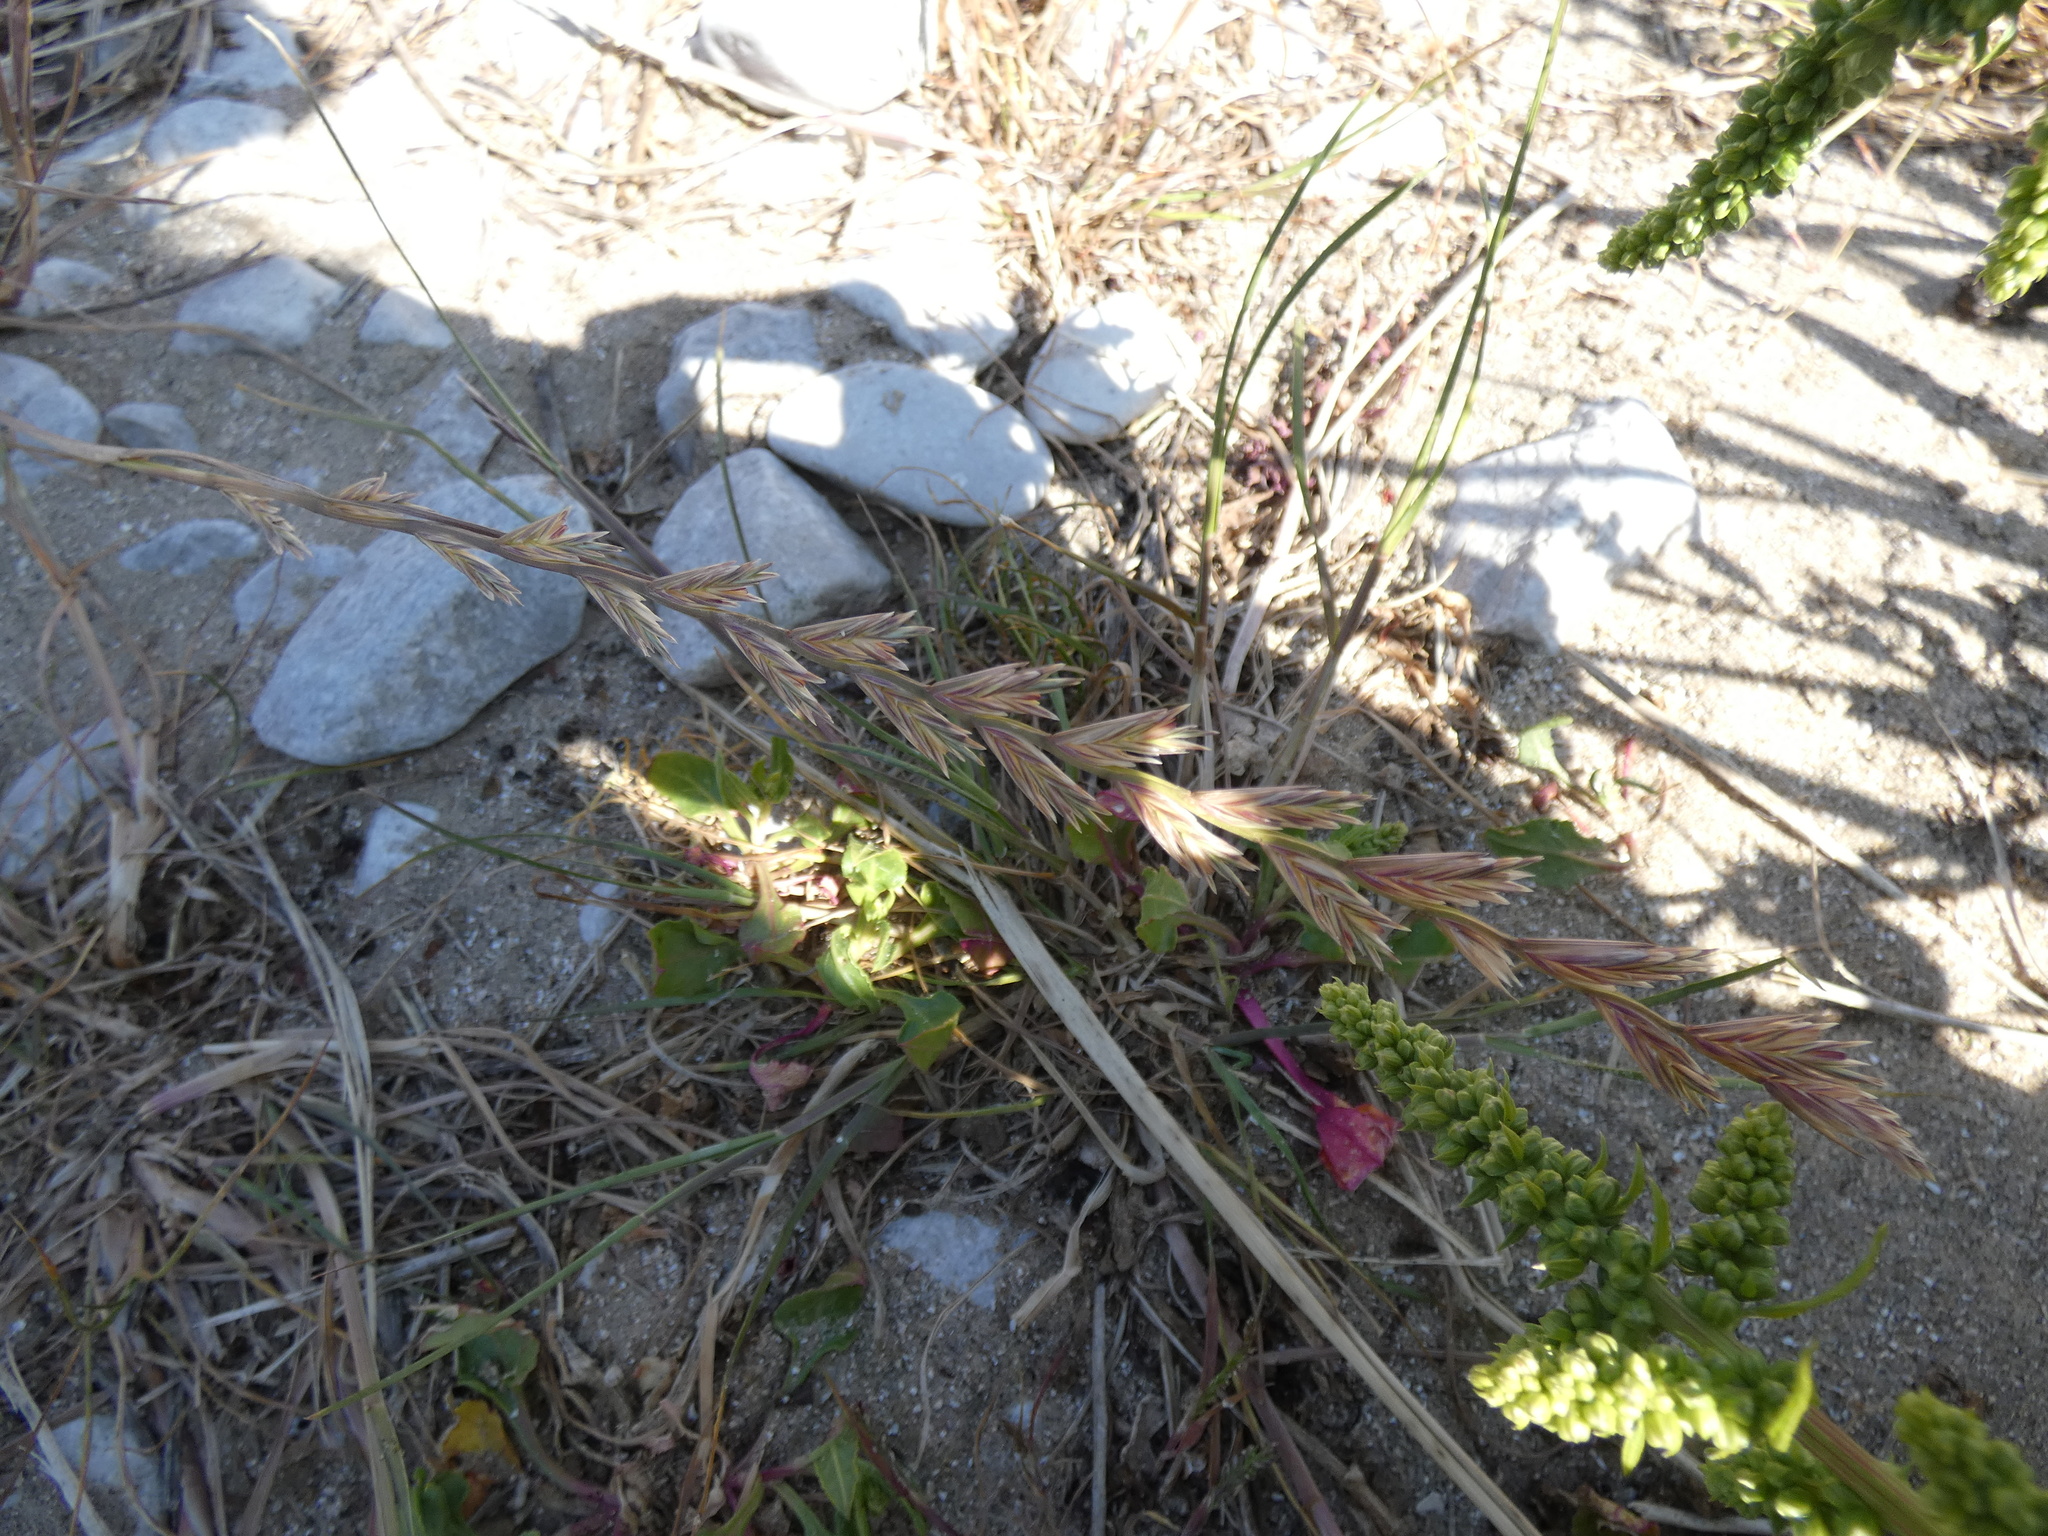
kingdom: Plantae
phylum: Tracheophyta
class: Liliopsida
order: Poales
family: Poaceae
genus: Lolium
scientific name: Lolium perenne
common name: Perennial ryegrass
